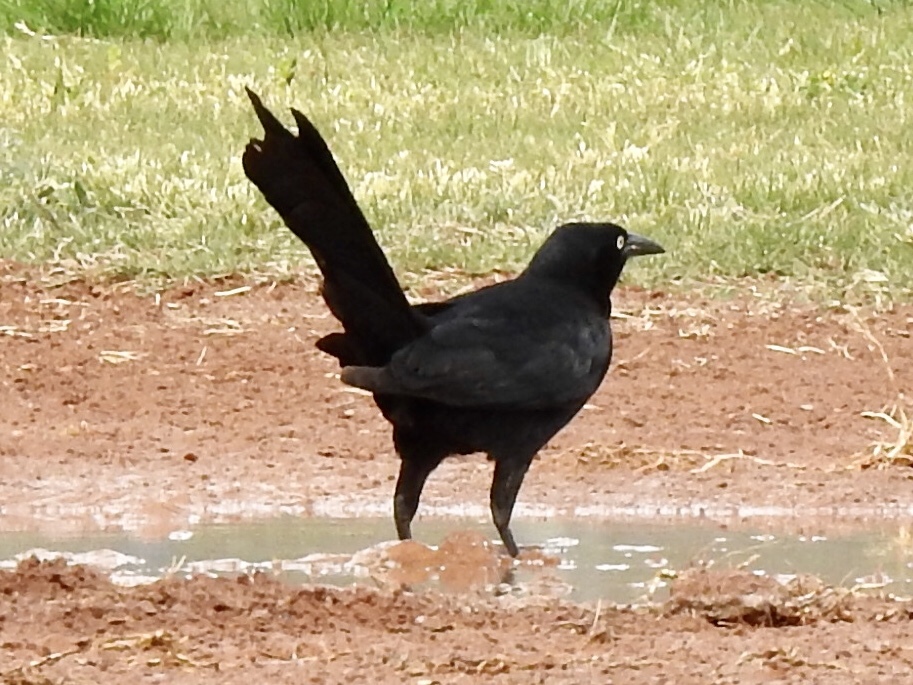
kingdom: Animalia
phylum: Chordata
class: Aves
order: Passeriformes
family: Icteridae
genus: Quiscalus
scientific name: Quiscalus mexicanus
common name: Great-tailed grackle
